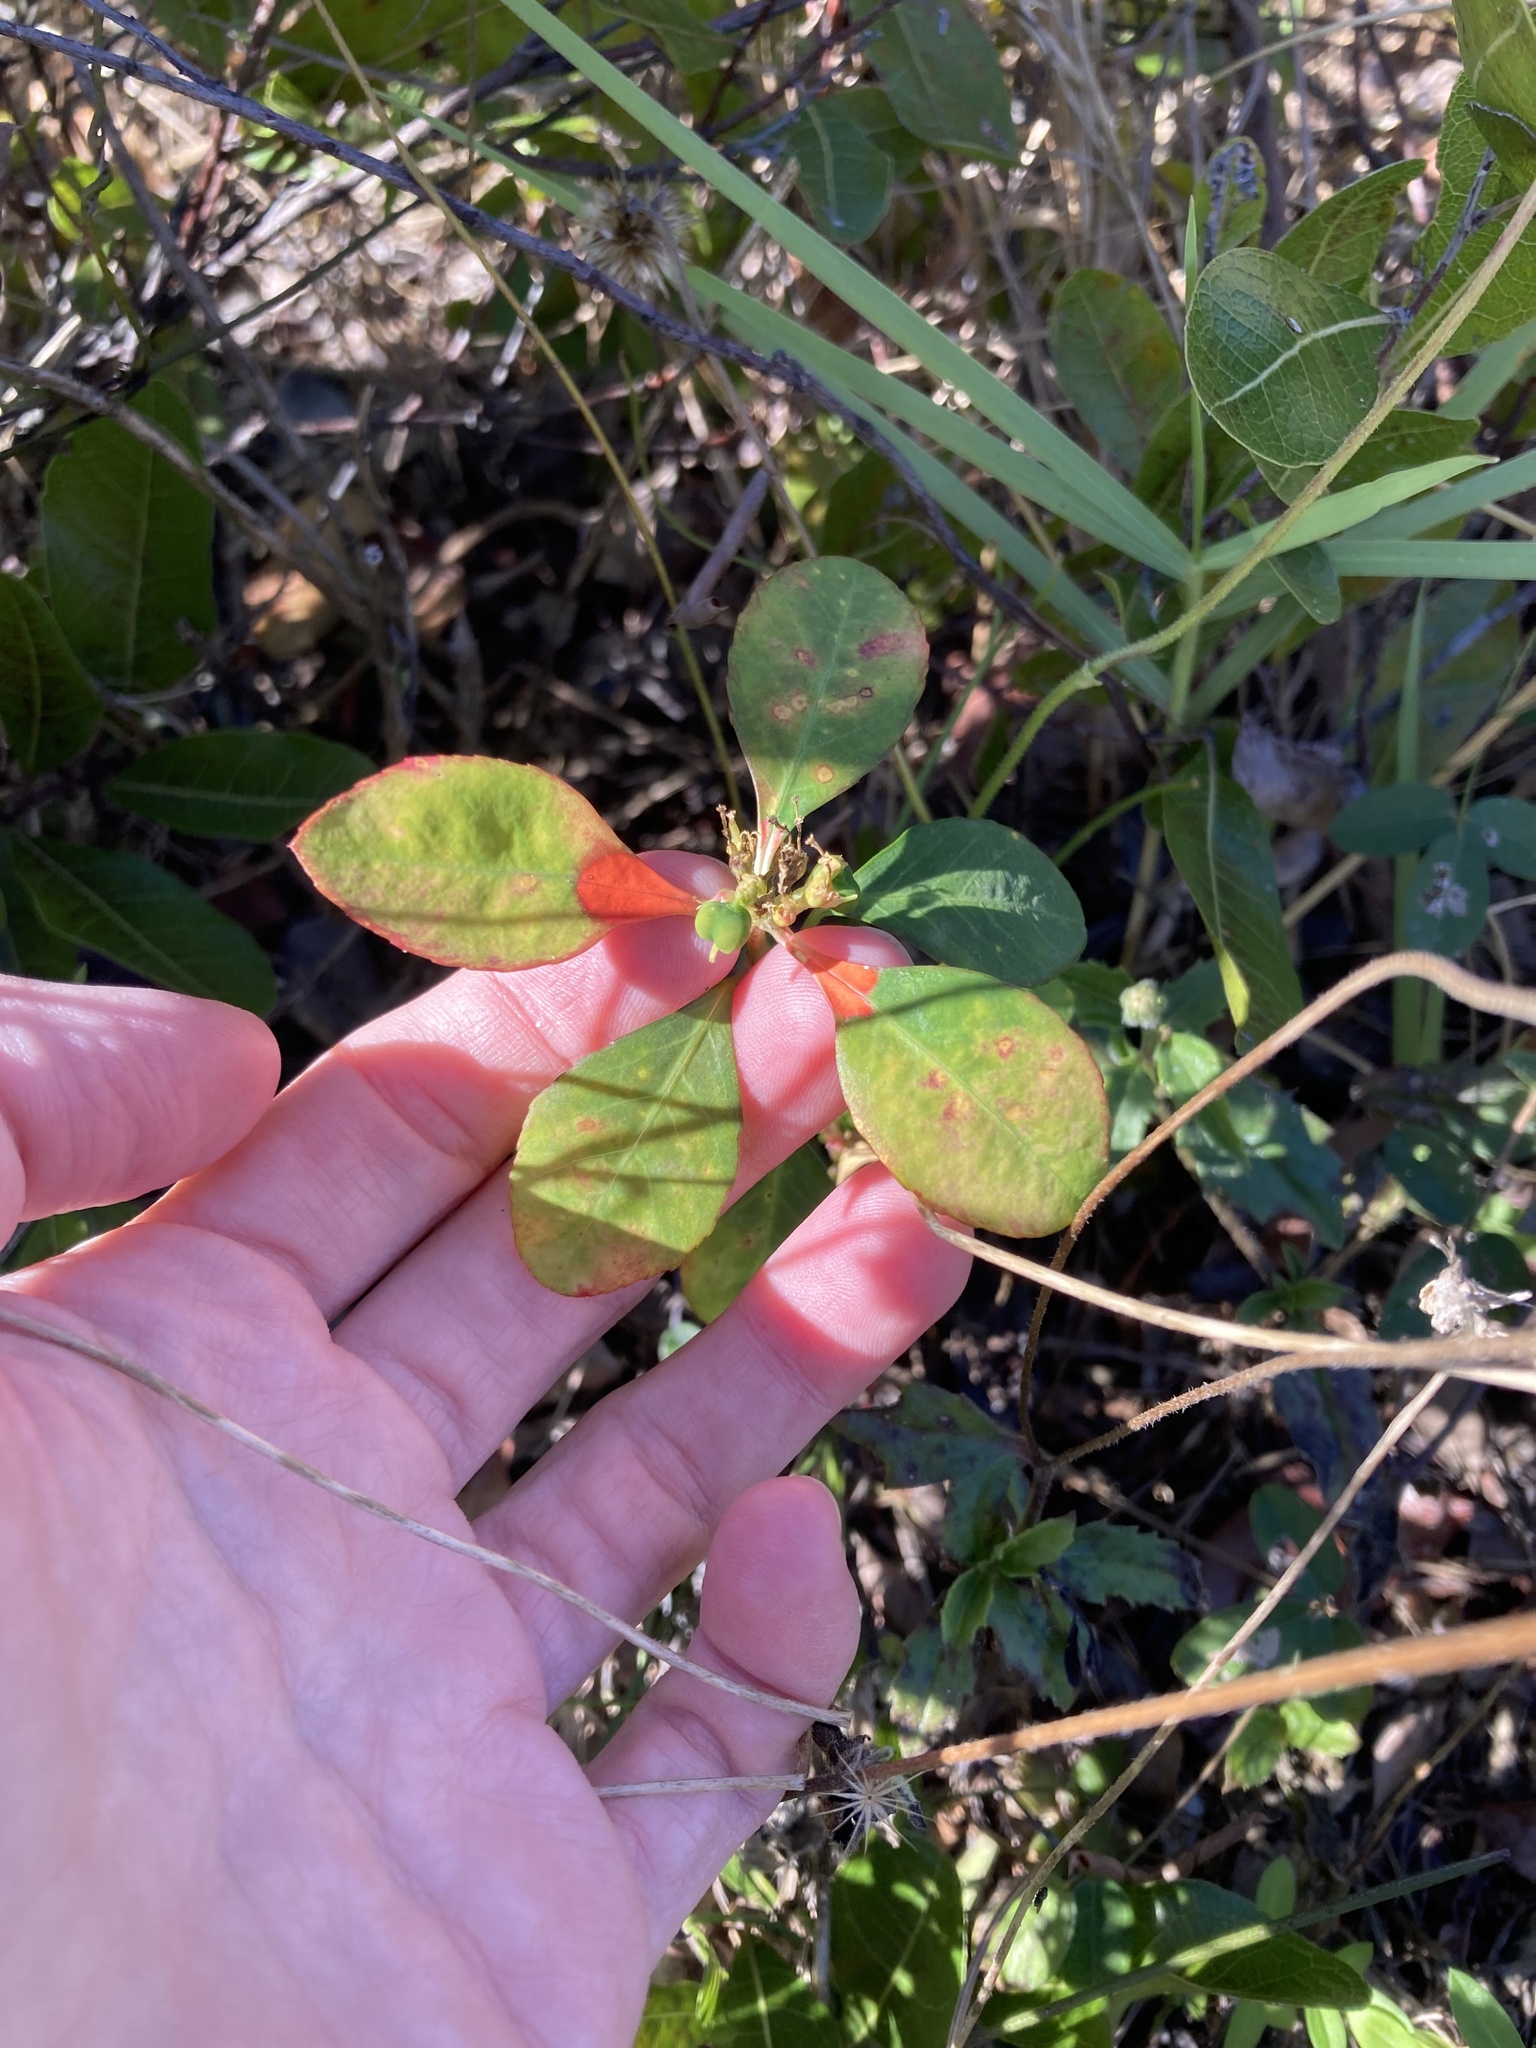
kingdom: Plantae
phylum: Tracheophyta
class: Magnoliopsida
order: Malpighiales
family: Euphorbiaceae
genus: Euphorbia
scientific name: Euphorbia heterophylla
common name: Mexican fireplant
